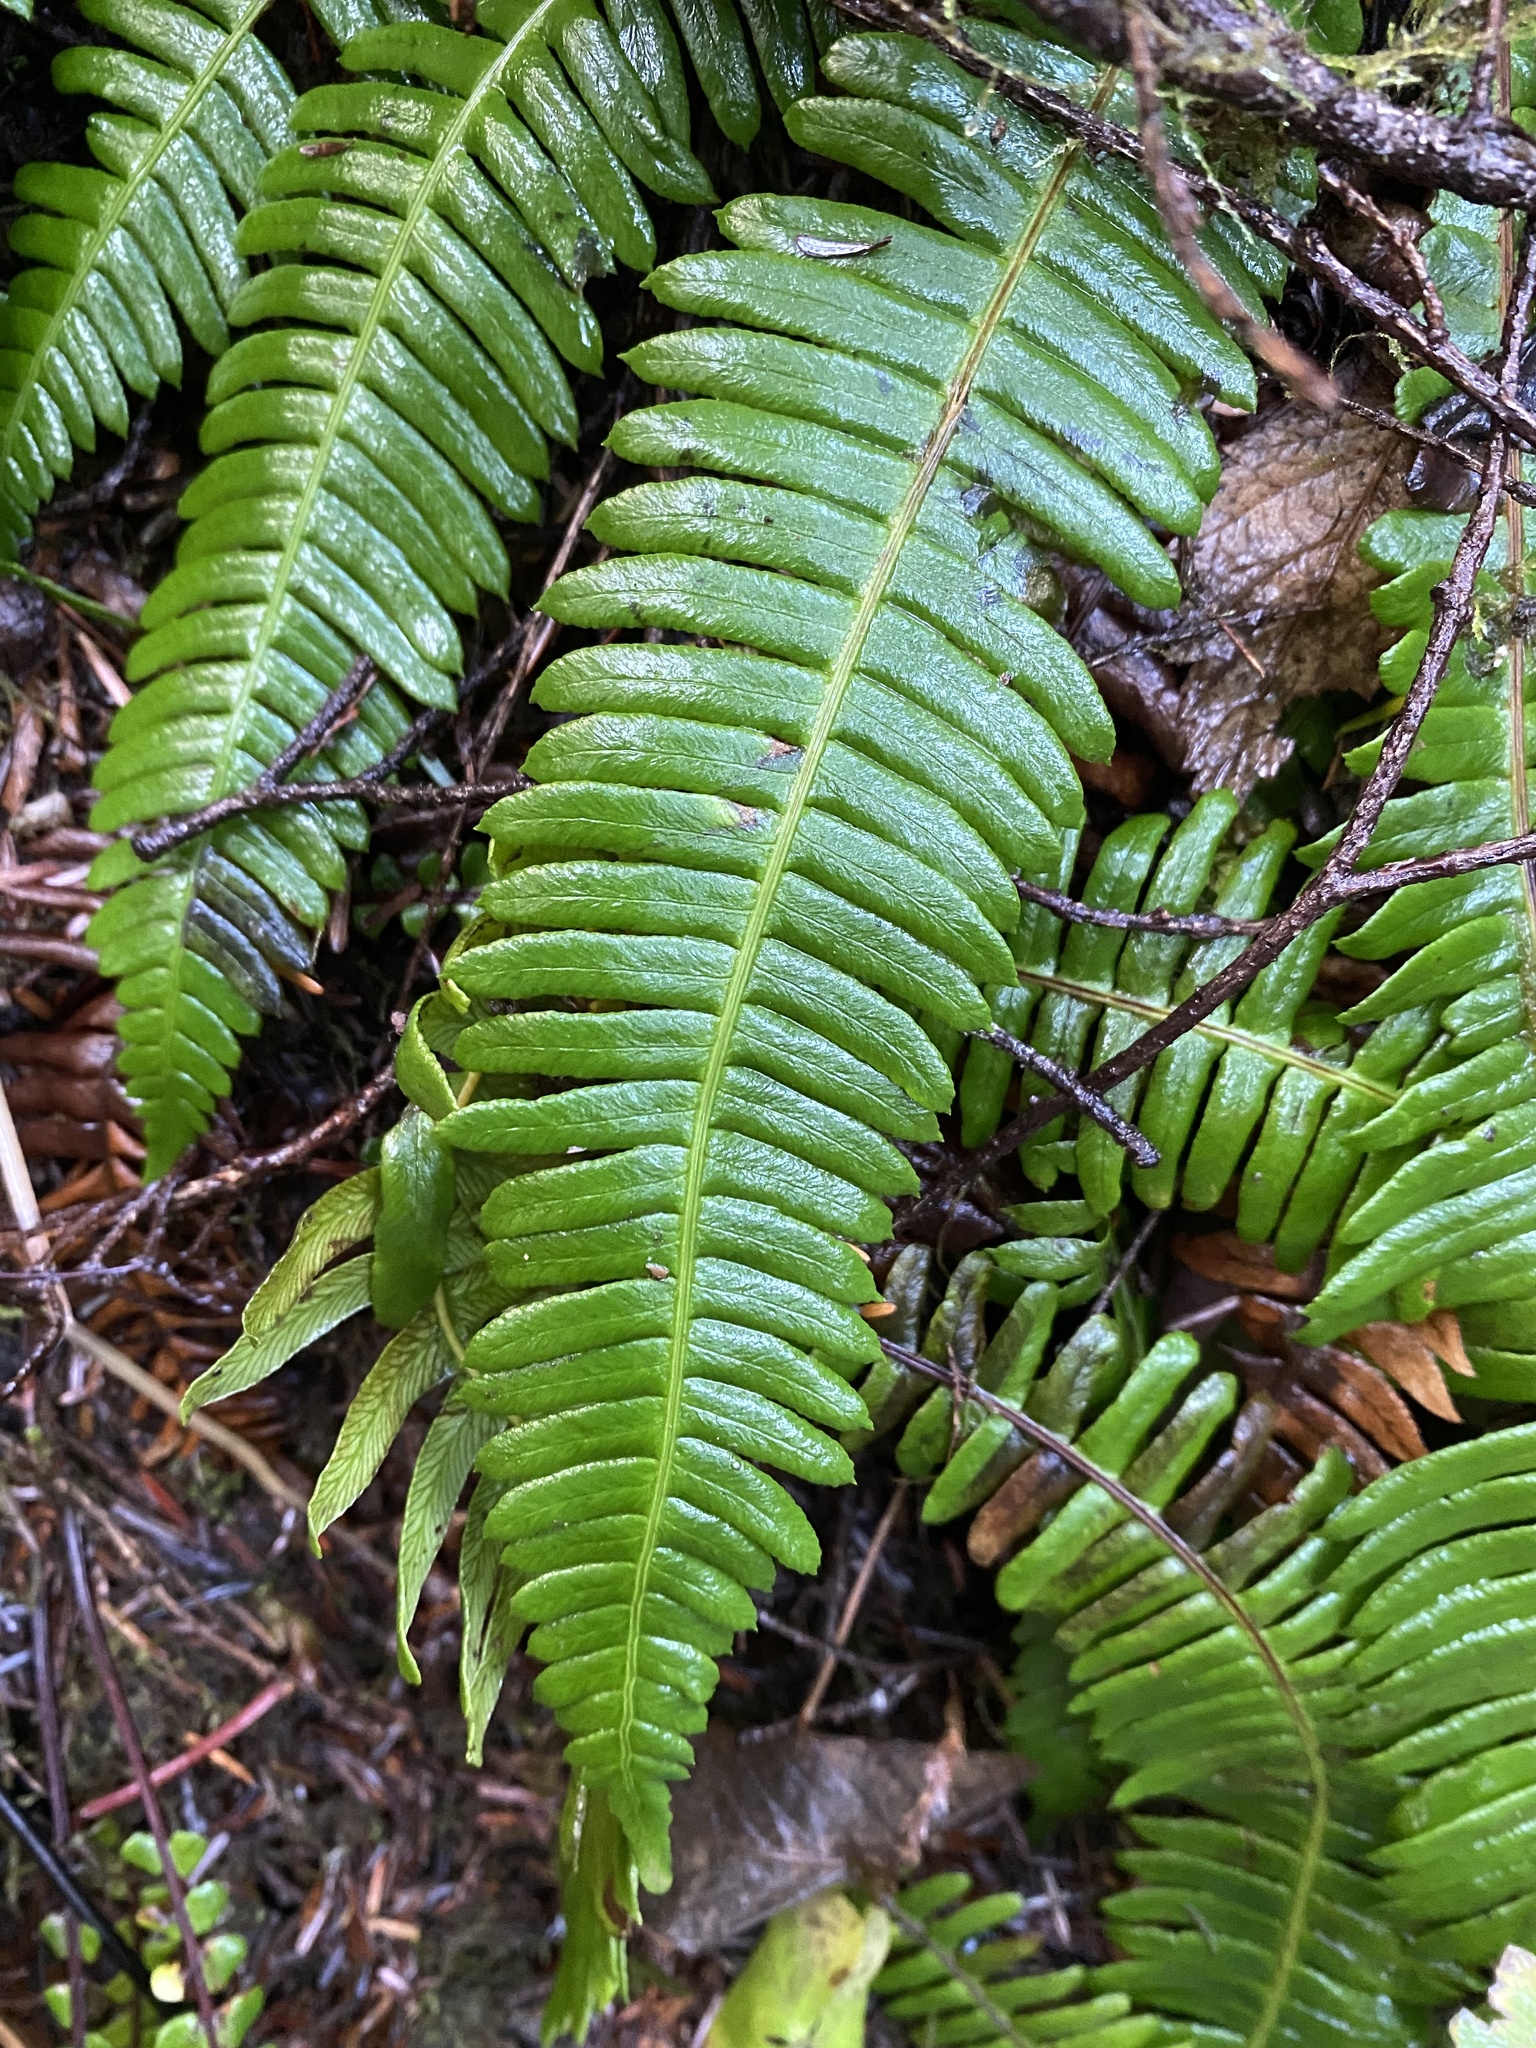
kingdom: Plantae
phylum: Tracheophyta
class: Polypodiopsida
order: Polypodiales
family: Blechnaceae
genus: Struthiopteris
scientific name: Struthiopteris spicant
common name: Deer fern
